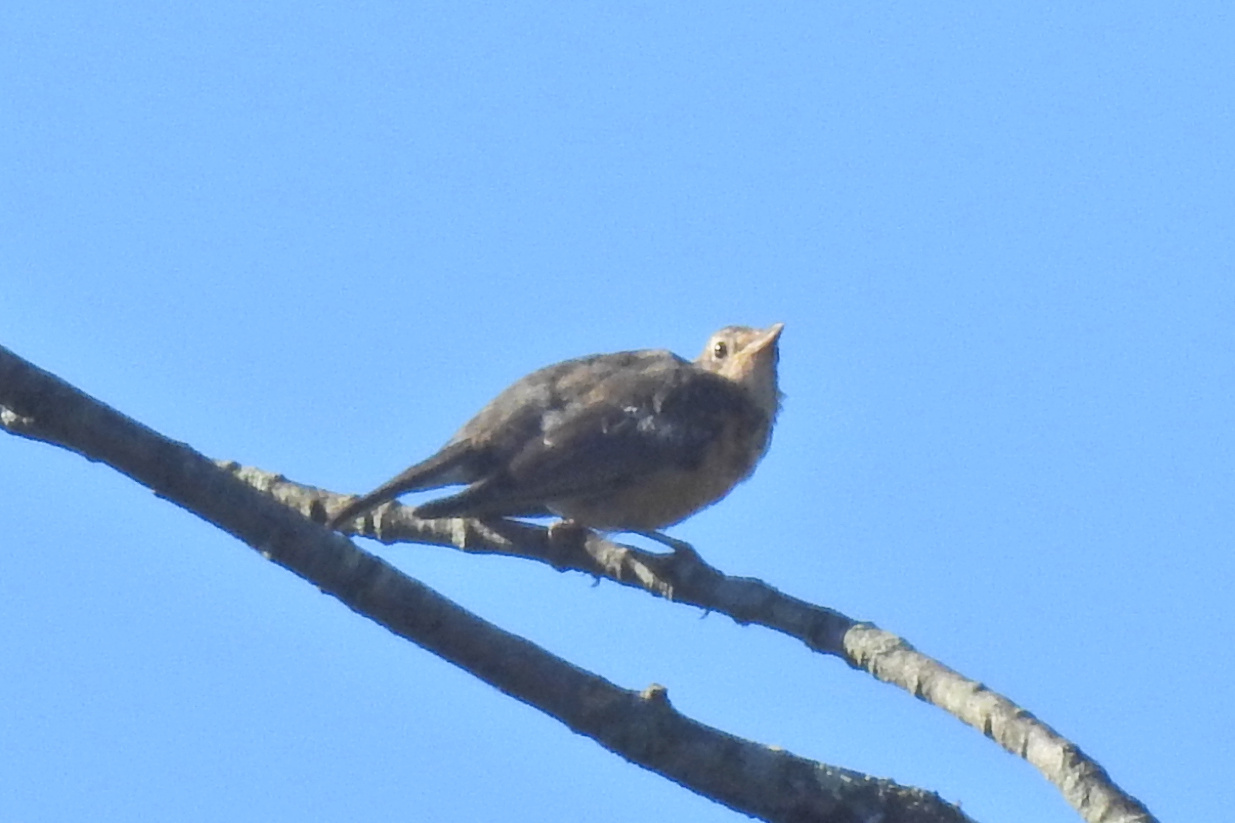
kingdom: Animalia
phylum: Chordata
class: Aves
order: Passeriformes
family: Turdidae
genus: Turdus
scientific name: Turdus migratorius
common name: American robin
